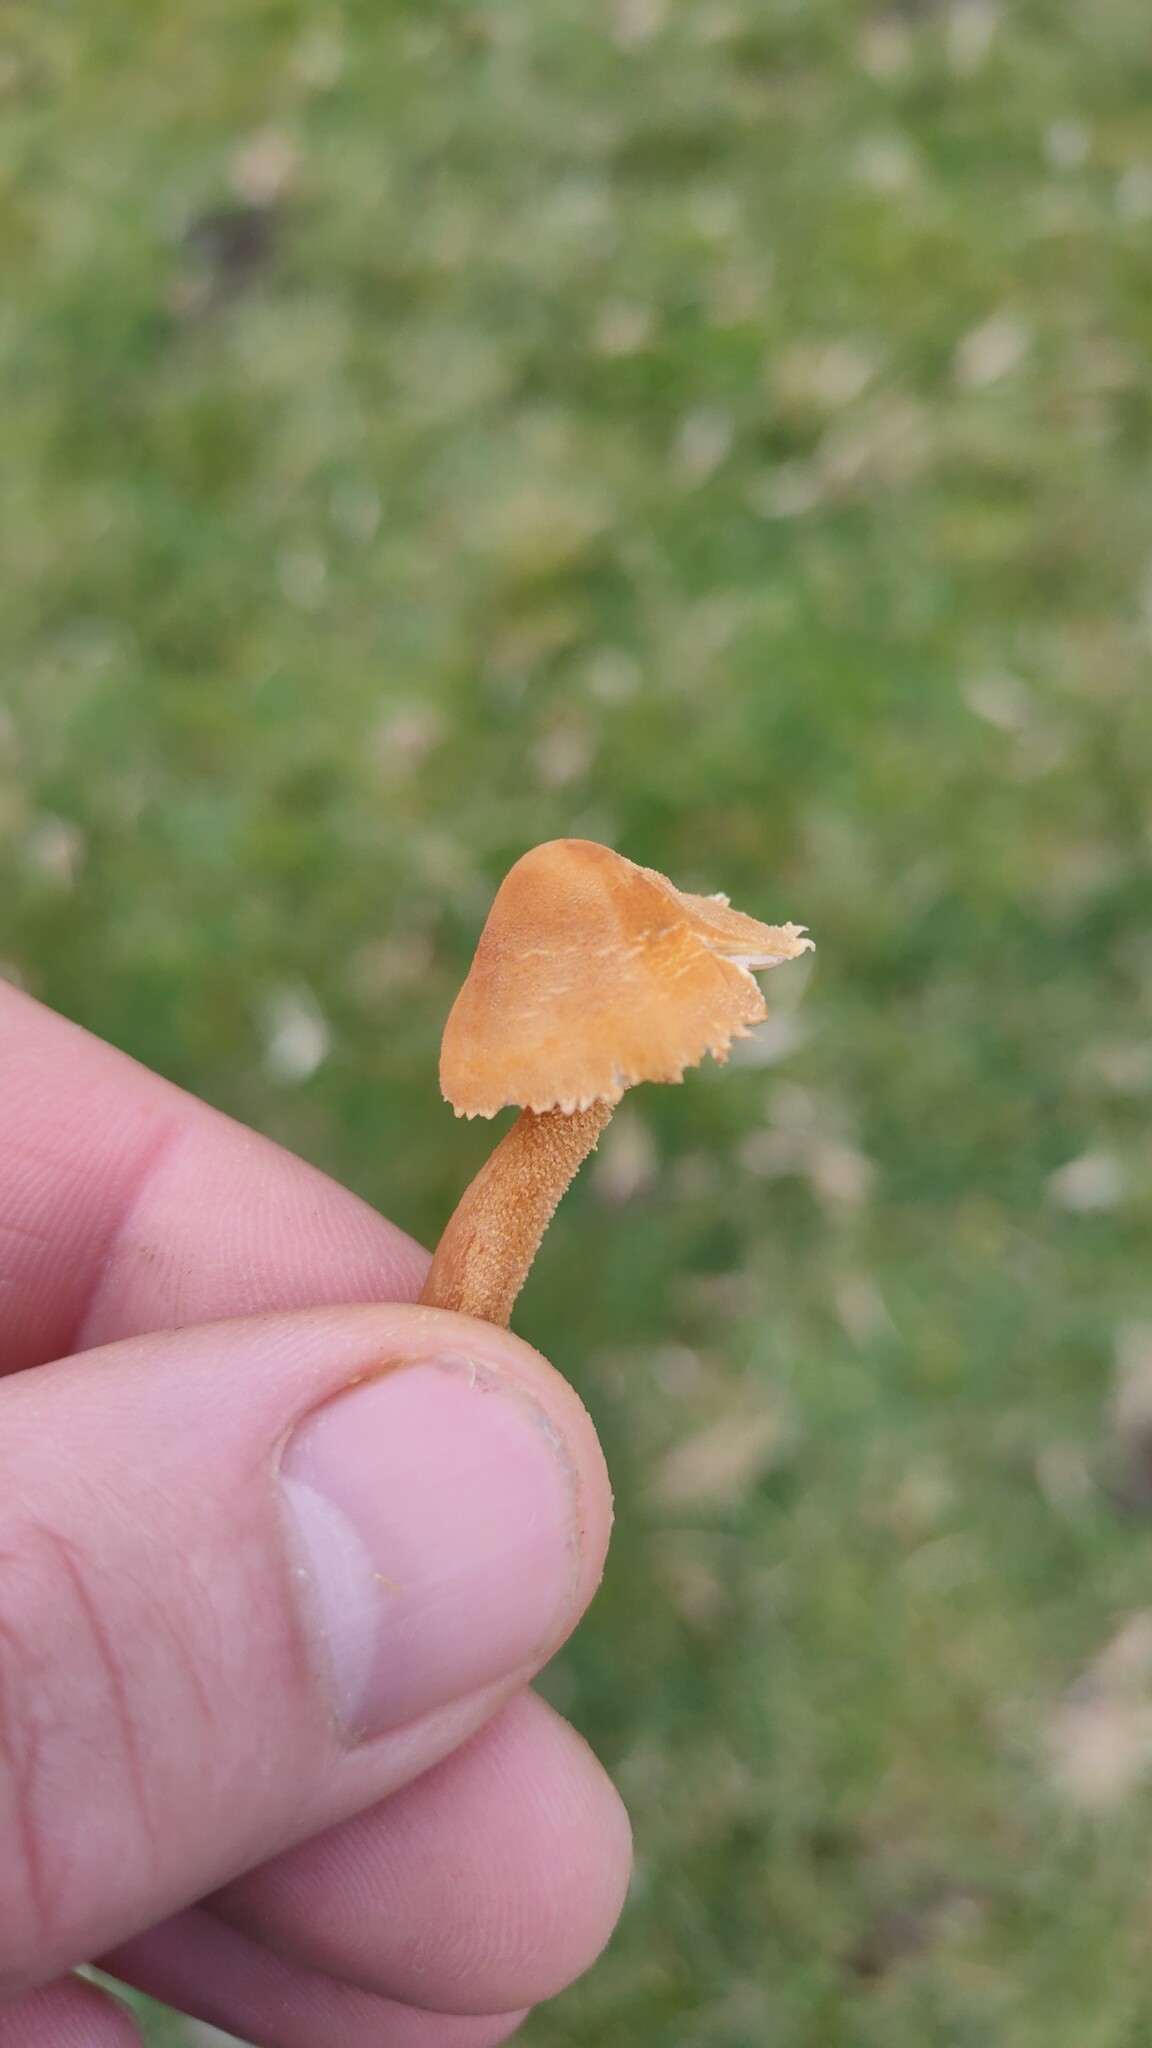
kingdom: Fungi
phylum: Basidiomycota
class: Agaricomycetes
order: Agaricales
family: Tricholomataceae
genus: Cystoderma
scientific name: Cystoderma amianthinum
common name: Earthy powdercap
